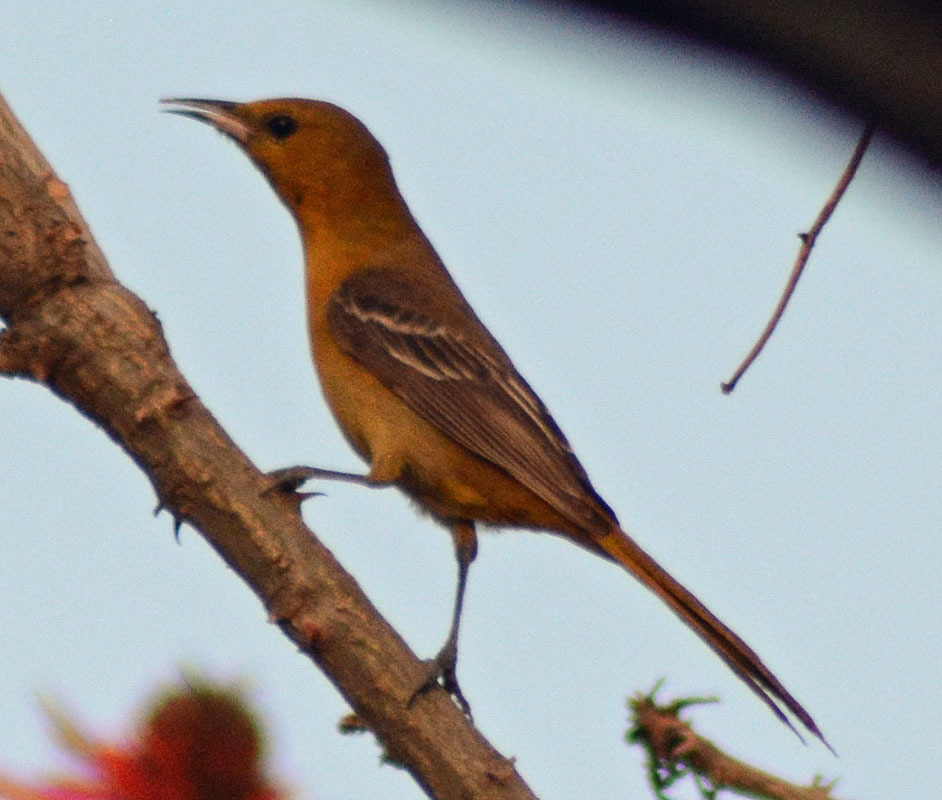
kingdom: Animalia
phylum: Chordata
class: Aves
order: Passeriformes
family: Icteridae
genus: Icterus
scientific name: Icterus cucullatus
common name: Hooded oriole
